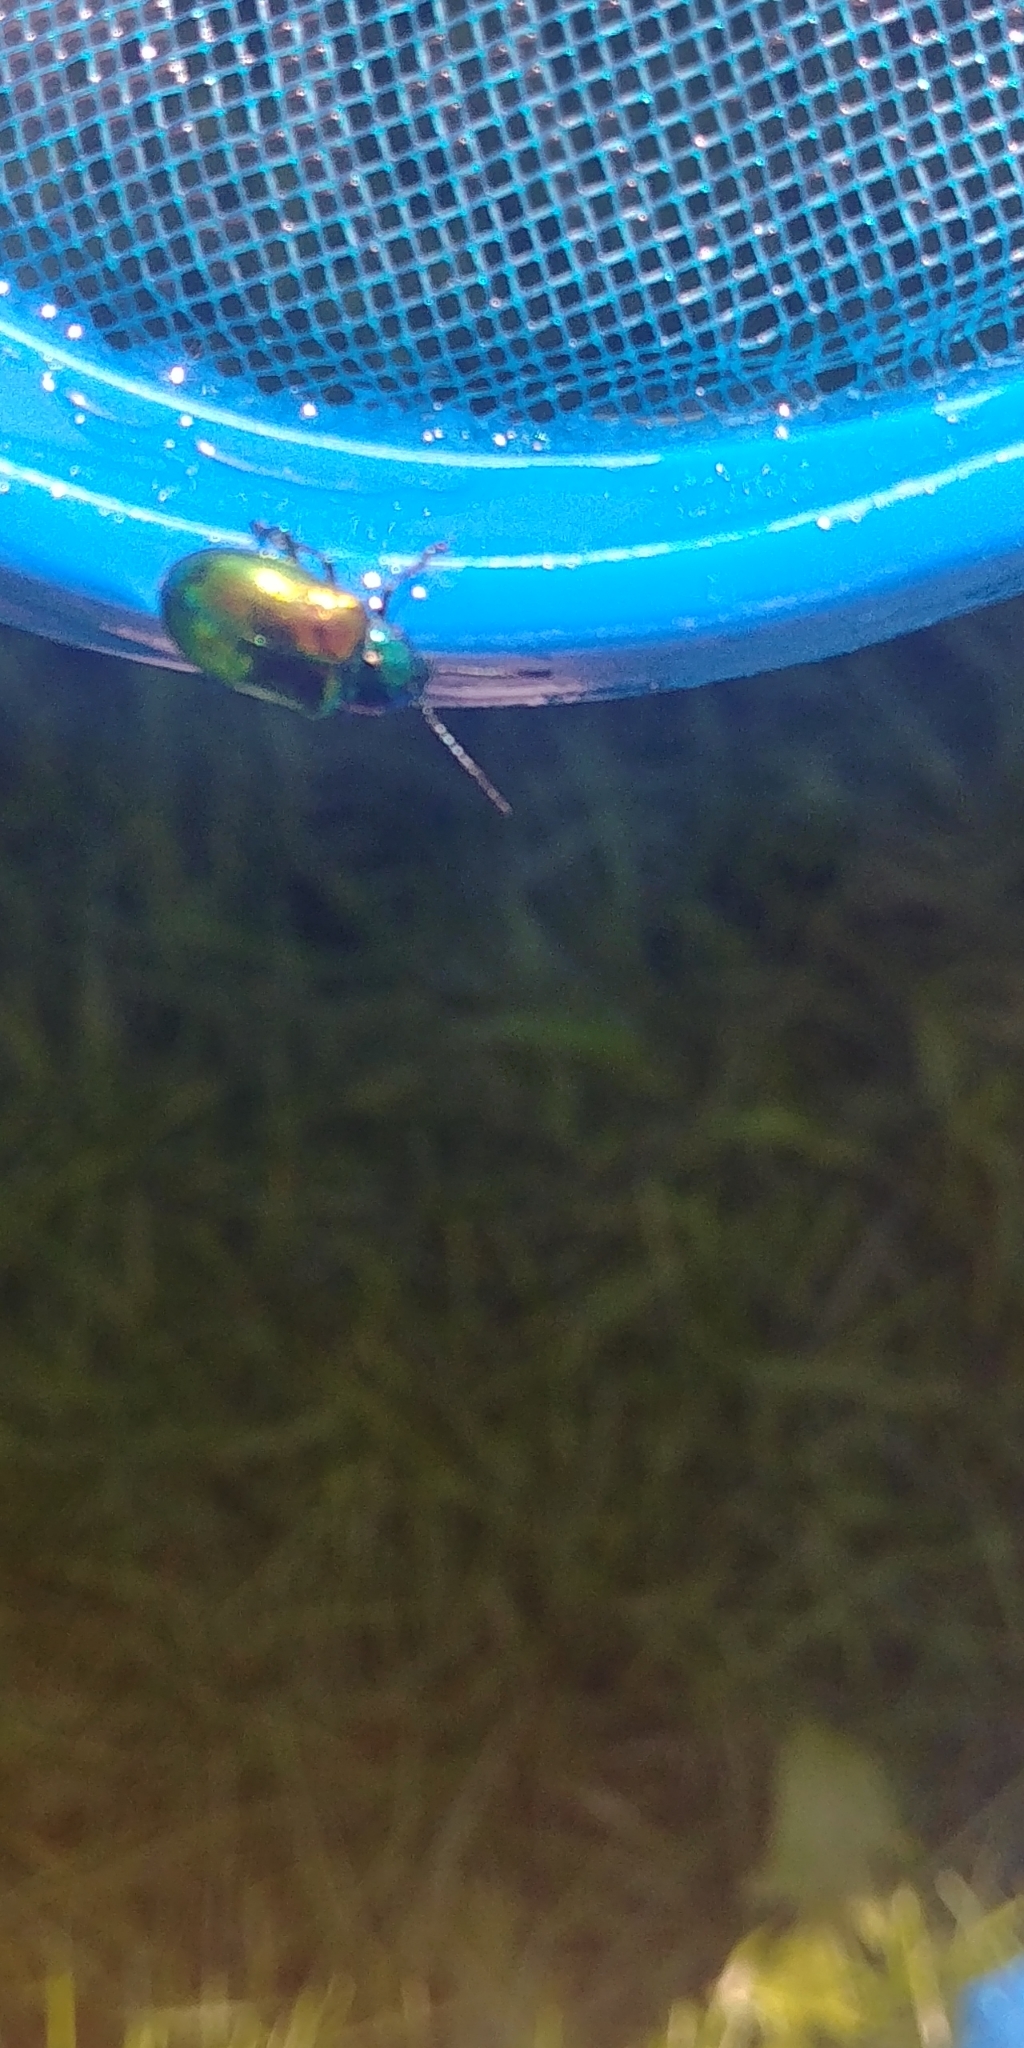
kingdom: Animalia
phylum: Arthropoda
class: Insecta
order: Coleoptera
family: Chrysomelidae
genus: Chrysochus
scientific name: Chrysochus auratus
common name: Dogbane leaf beetle
